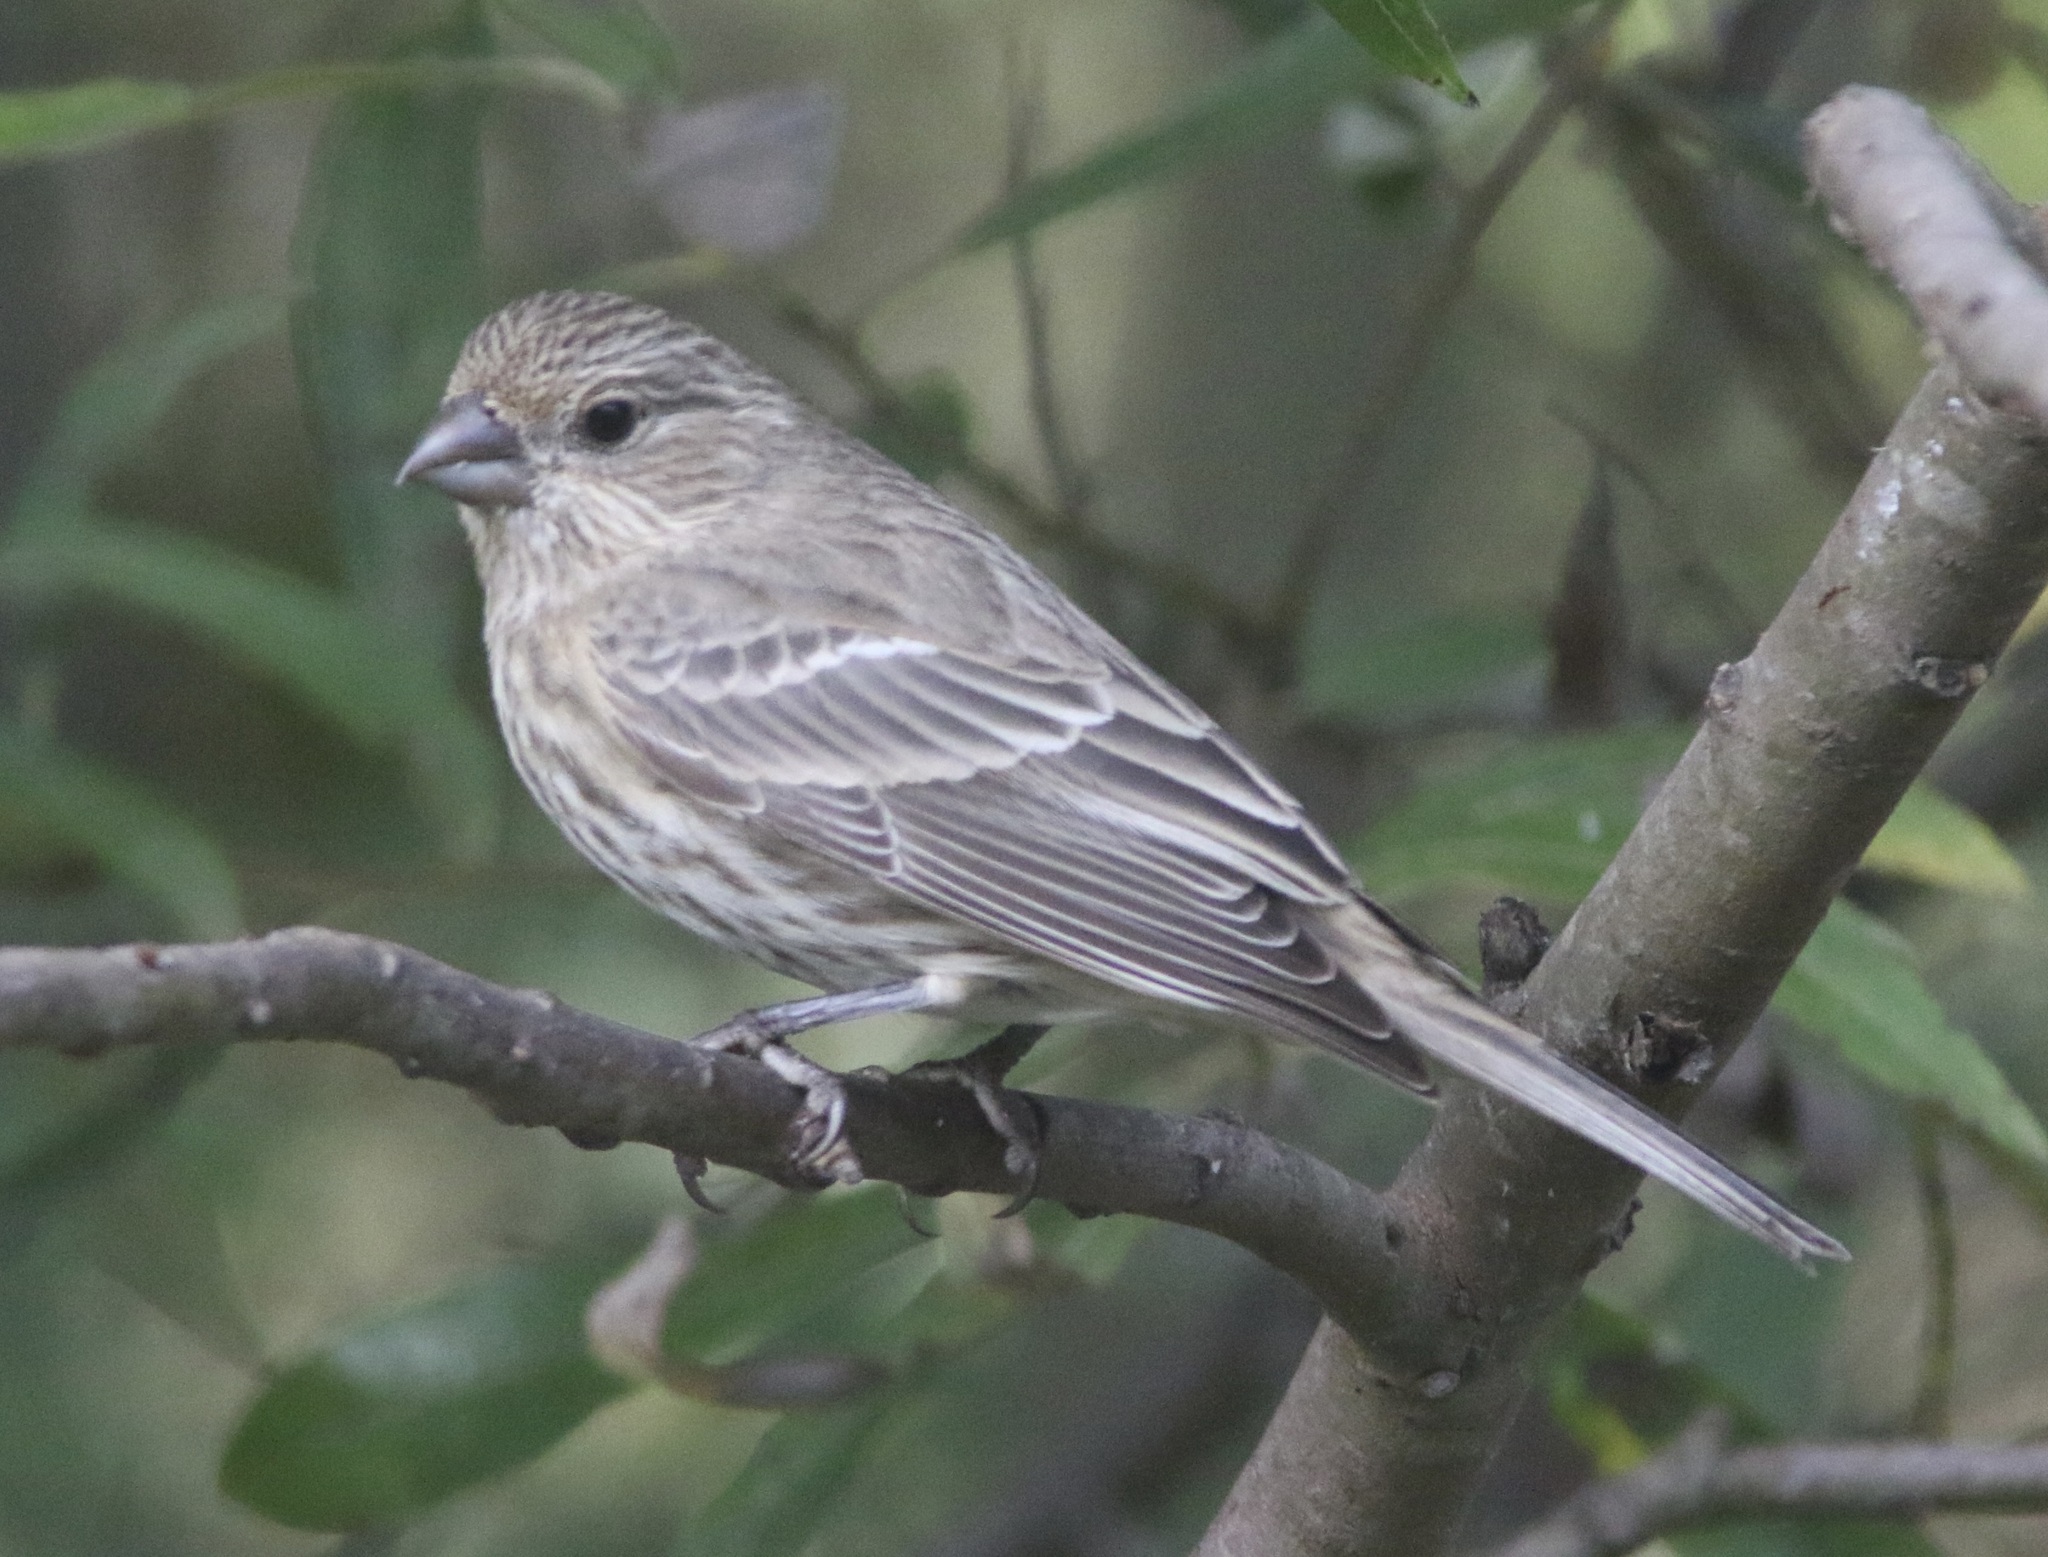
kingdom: Animalia
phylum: Chordata
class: Aves
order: Passeriformes
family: Fringillidae
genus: Haemorhous
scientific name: Haemorhous mexicanus
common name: House finch
